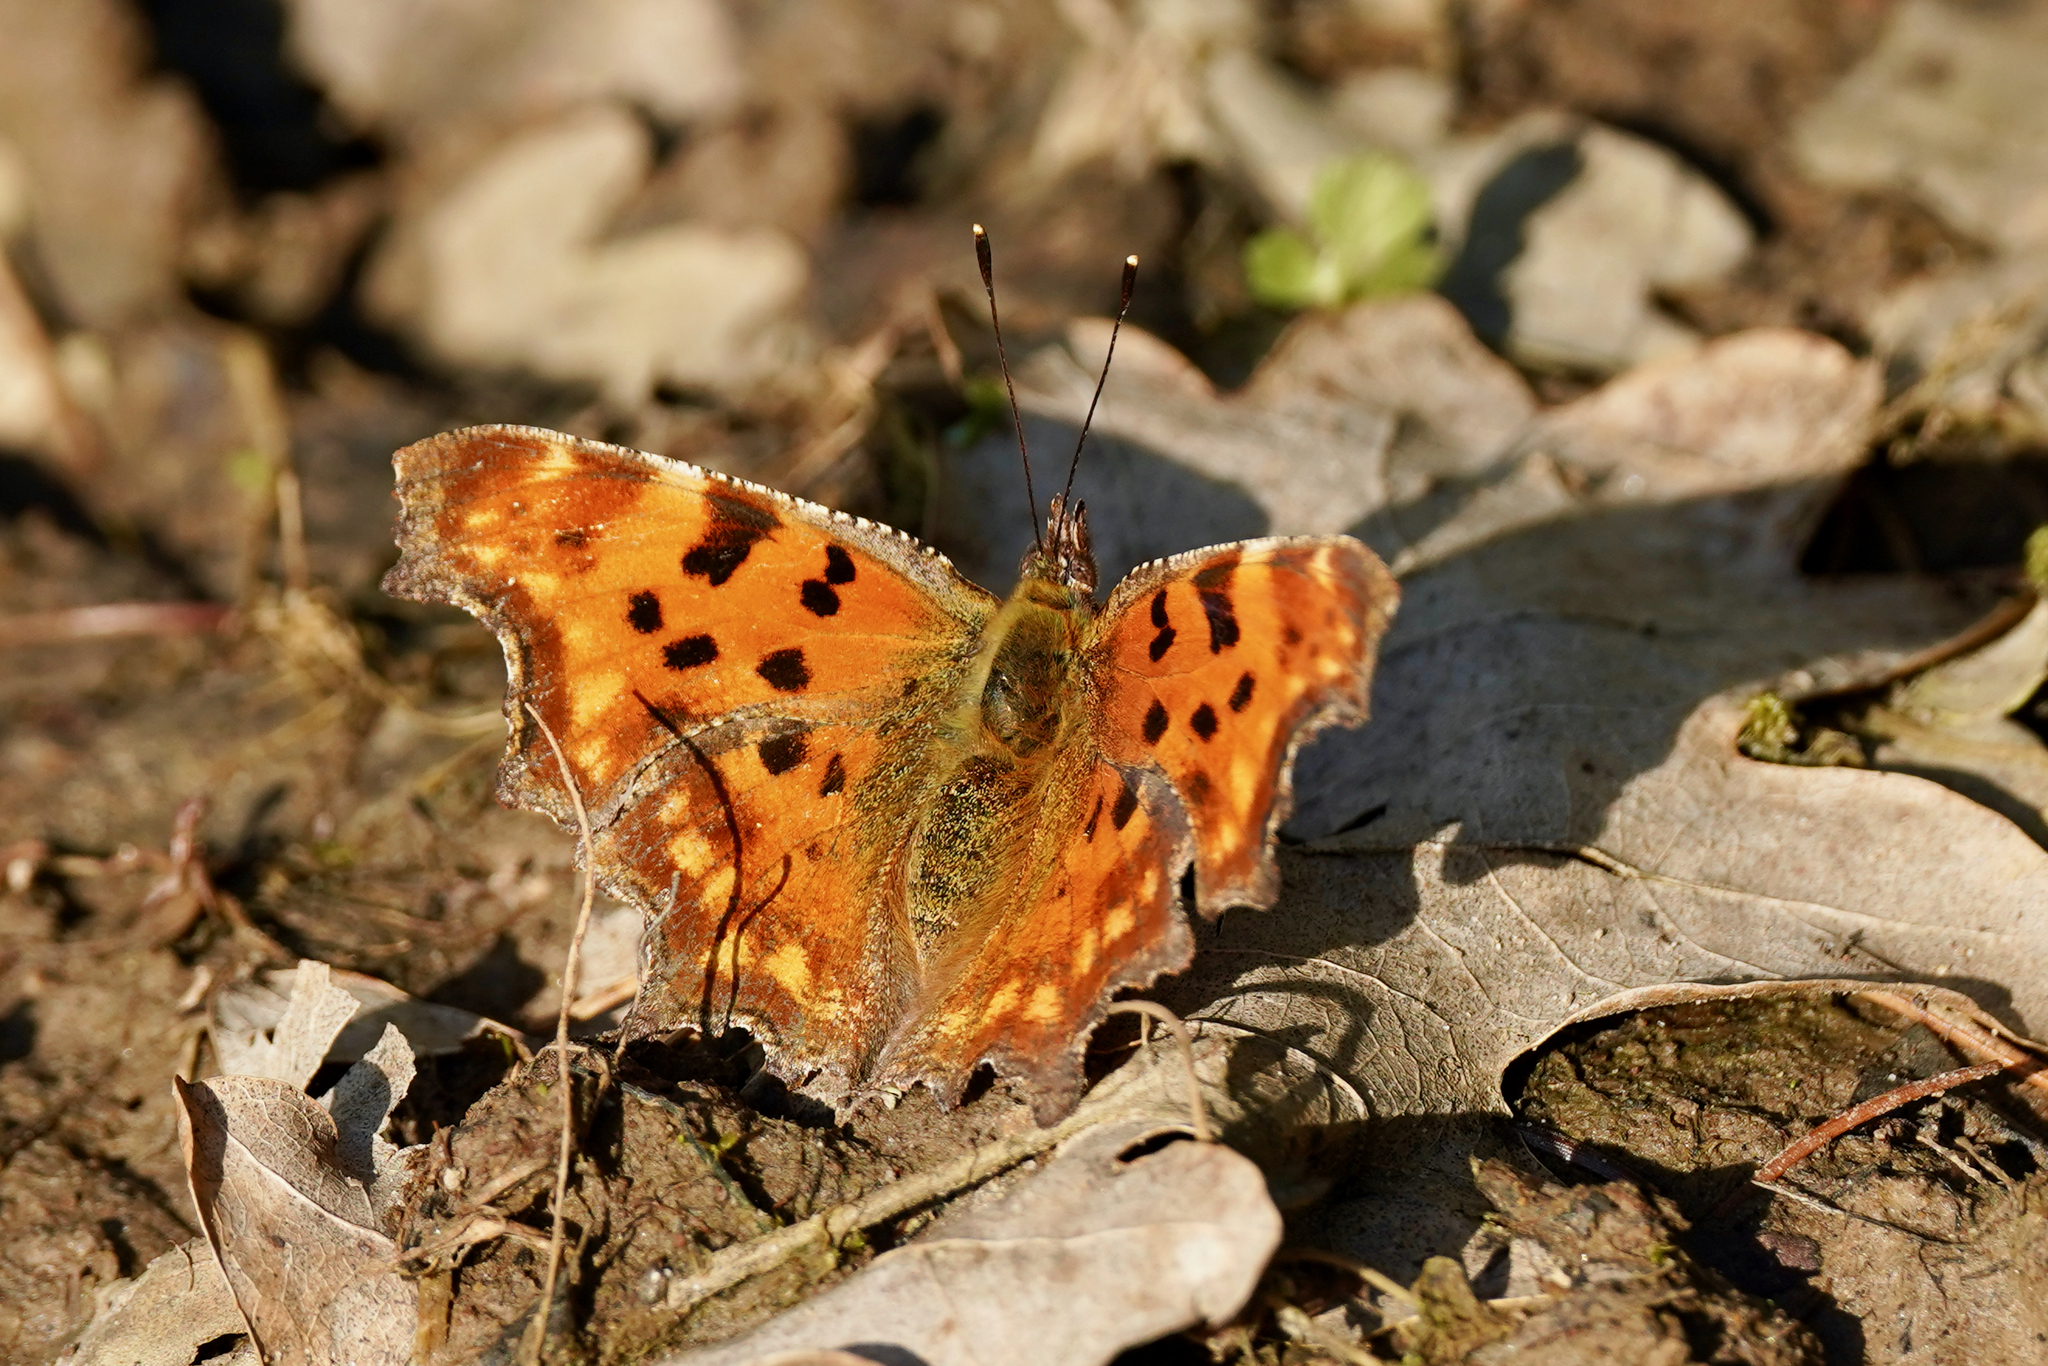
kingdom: Animalia
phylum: Arthropoda
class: Insecta
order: Lepidoptera
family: Nymphalidae
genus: Polygonia
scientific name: Polygonia c-album
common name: Comma
